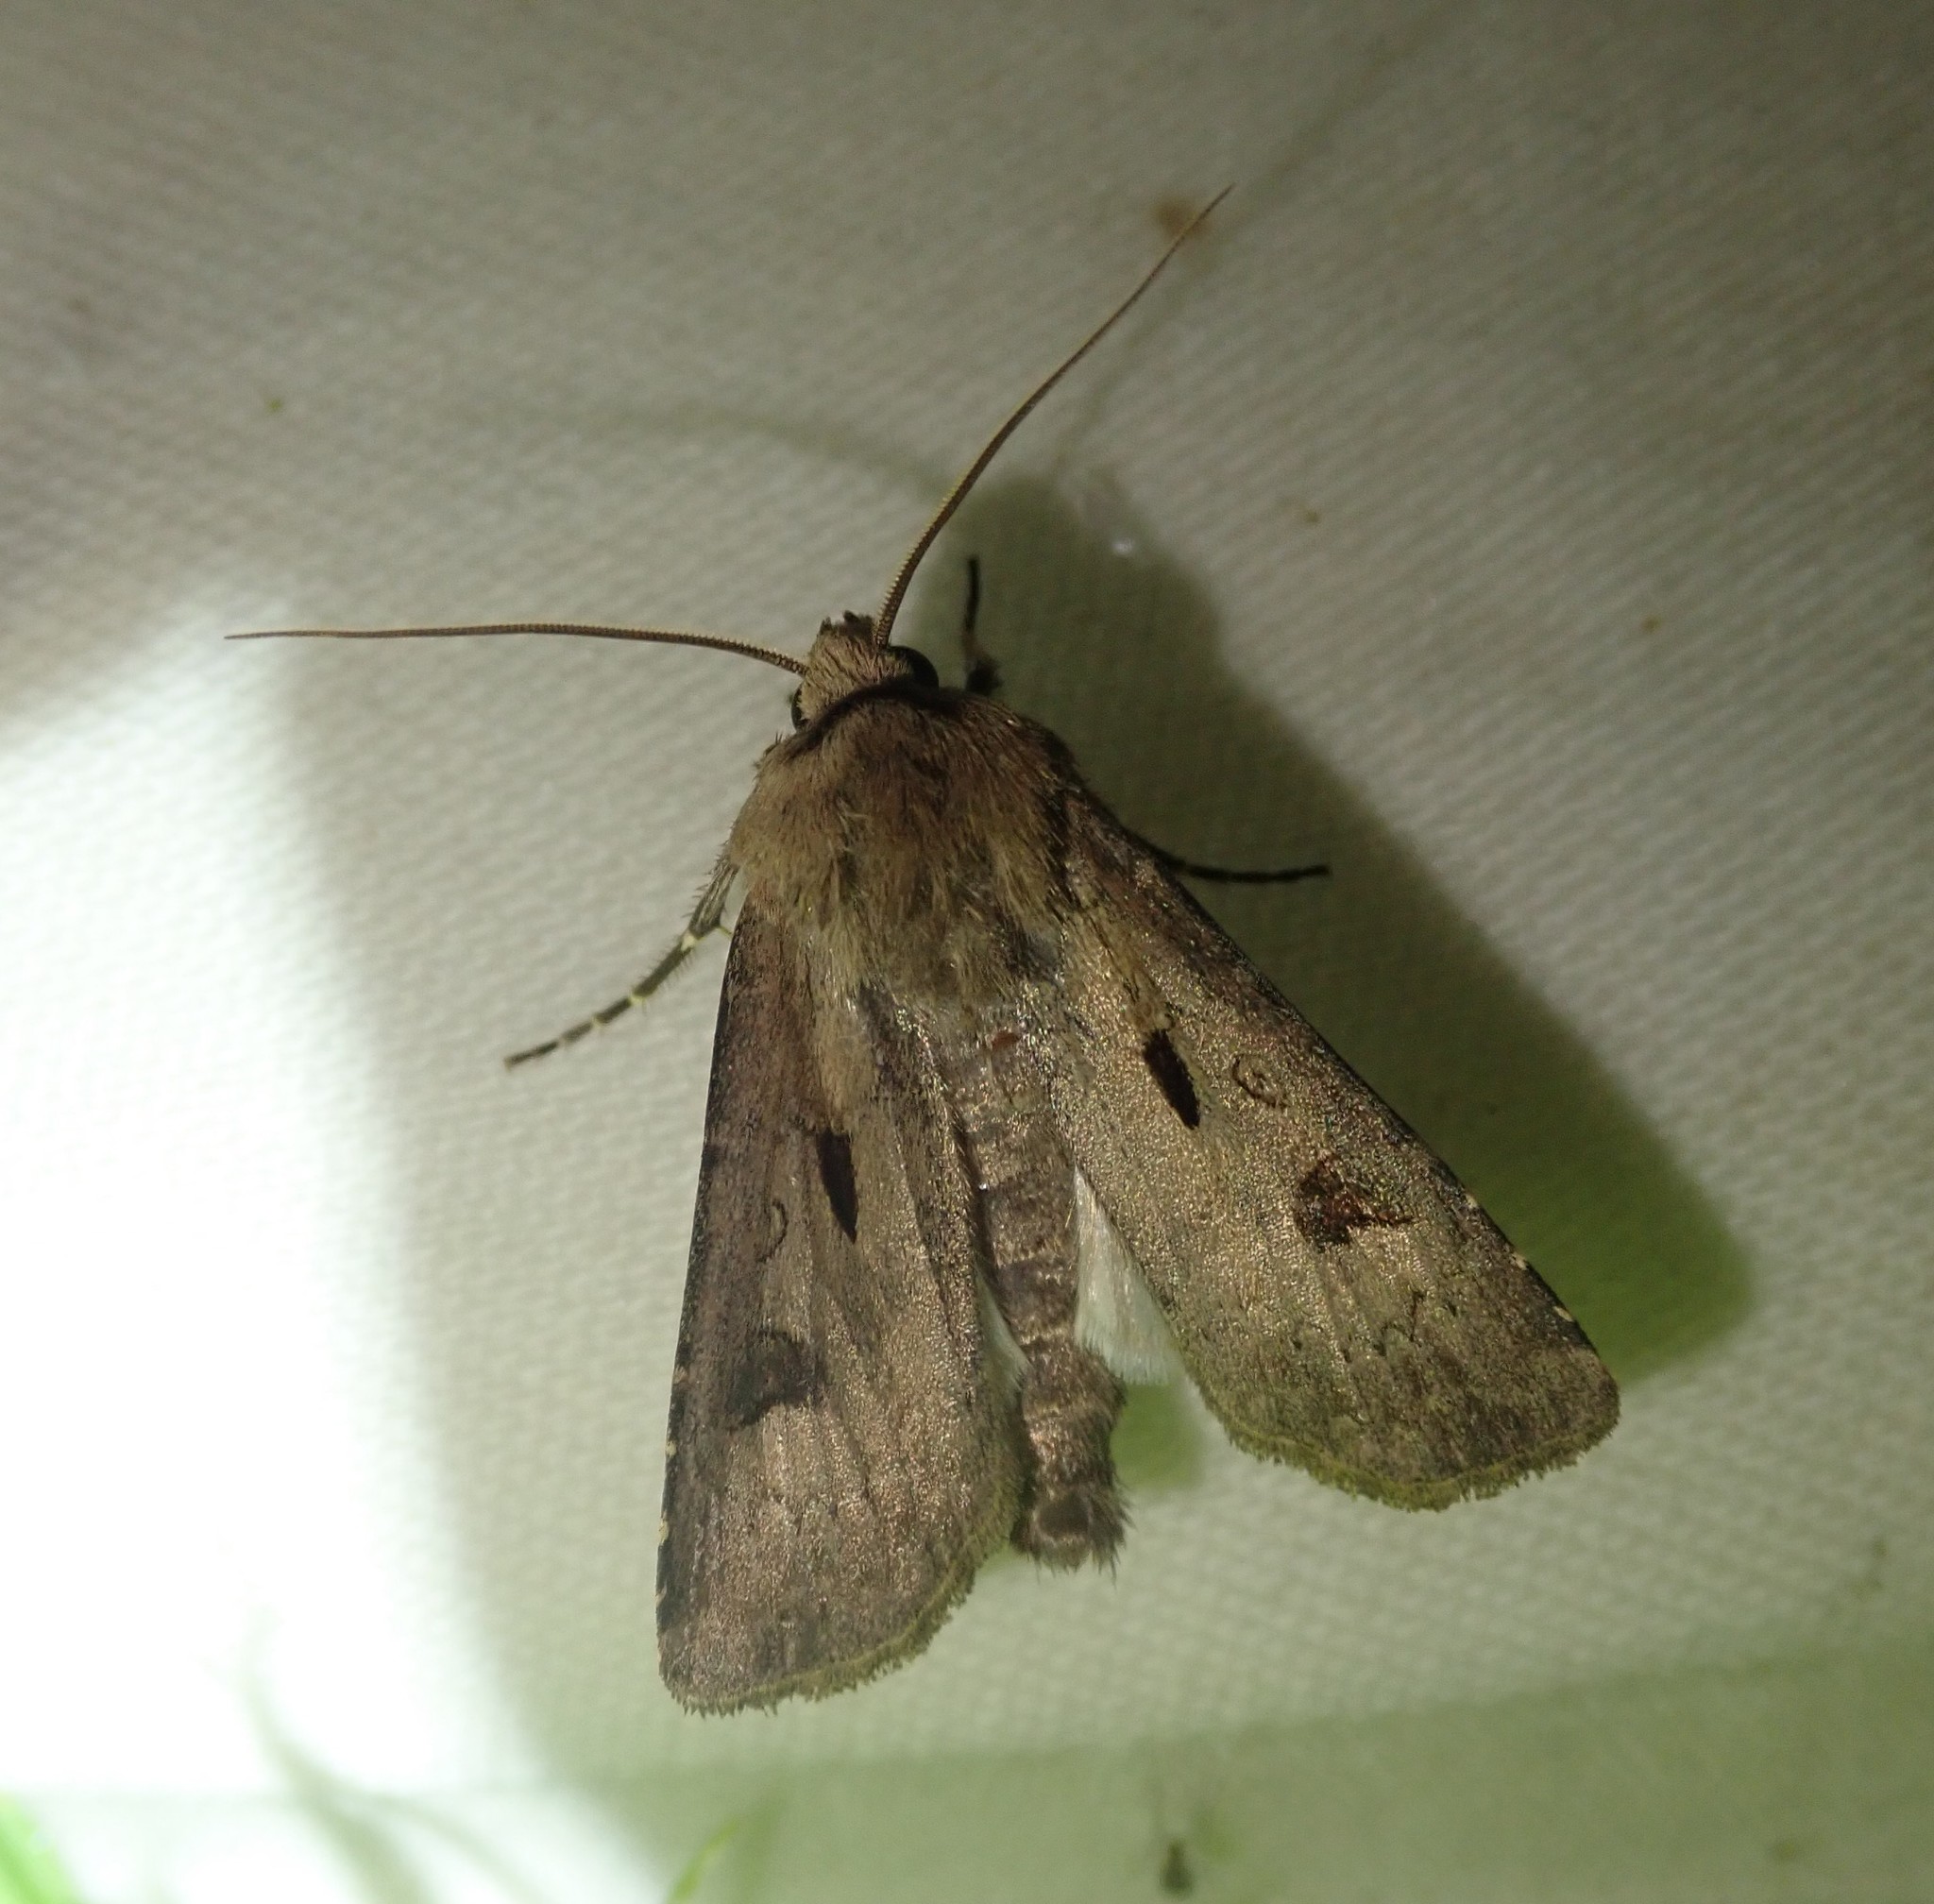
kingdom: Animalia
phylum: Arthropoda
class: Insecta
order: Lepidoptera
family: Noctuidae
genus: Agrotis
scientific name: Agrotis exclamationis
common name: Heart and dart
